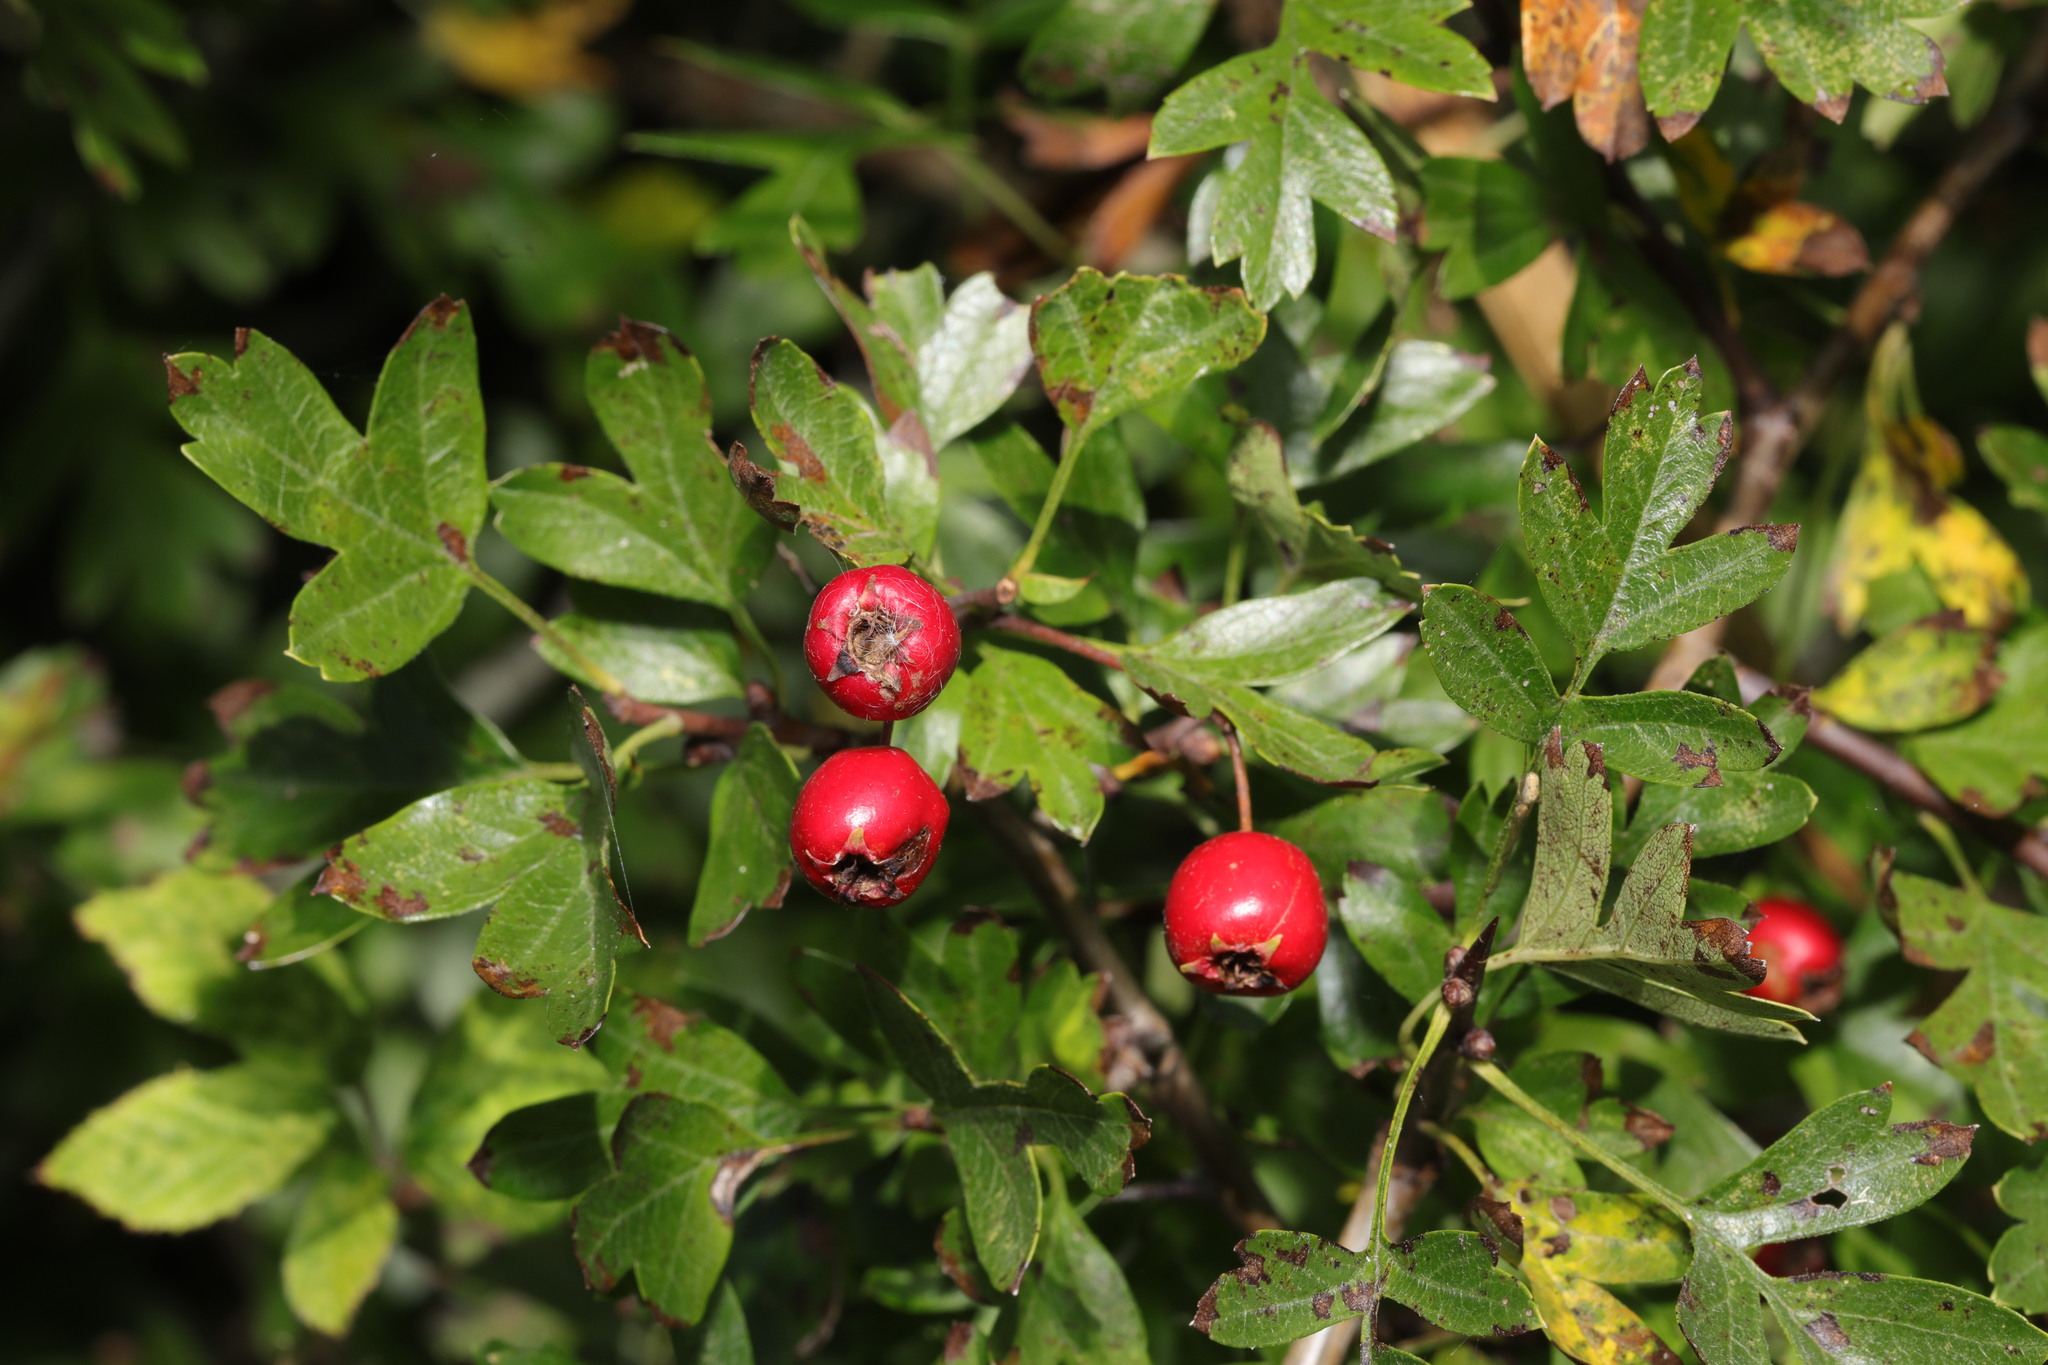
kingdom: Plantae
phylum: Tracheophyta
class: Magnoliopsida
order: Rosales
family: Rosaceae
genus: Crataegus
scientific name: Crataegus monogyna
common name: Hawthorn
